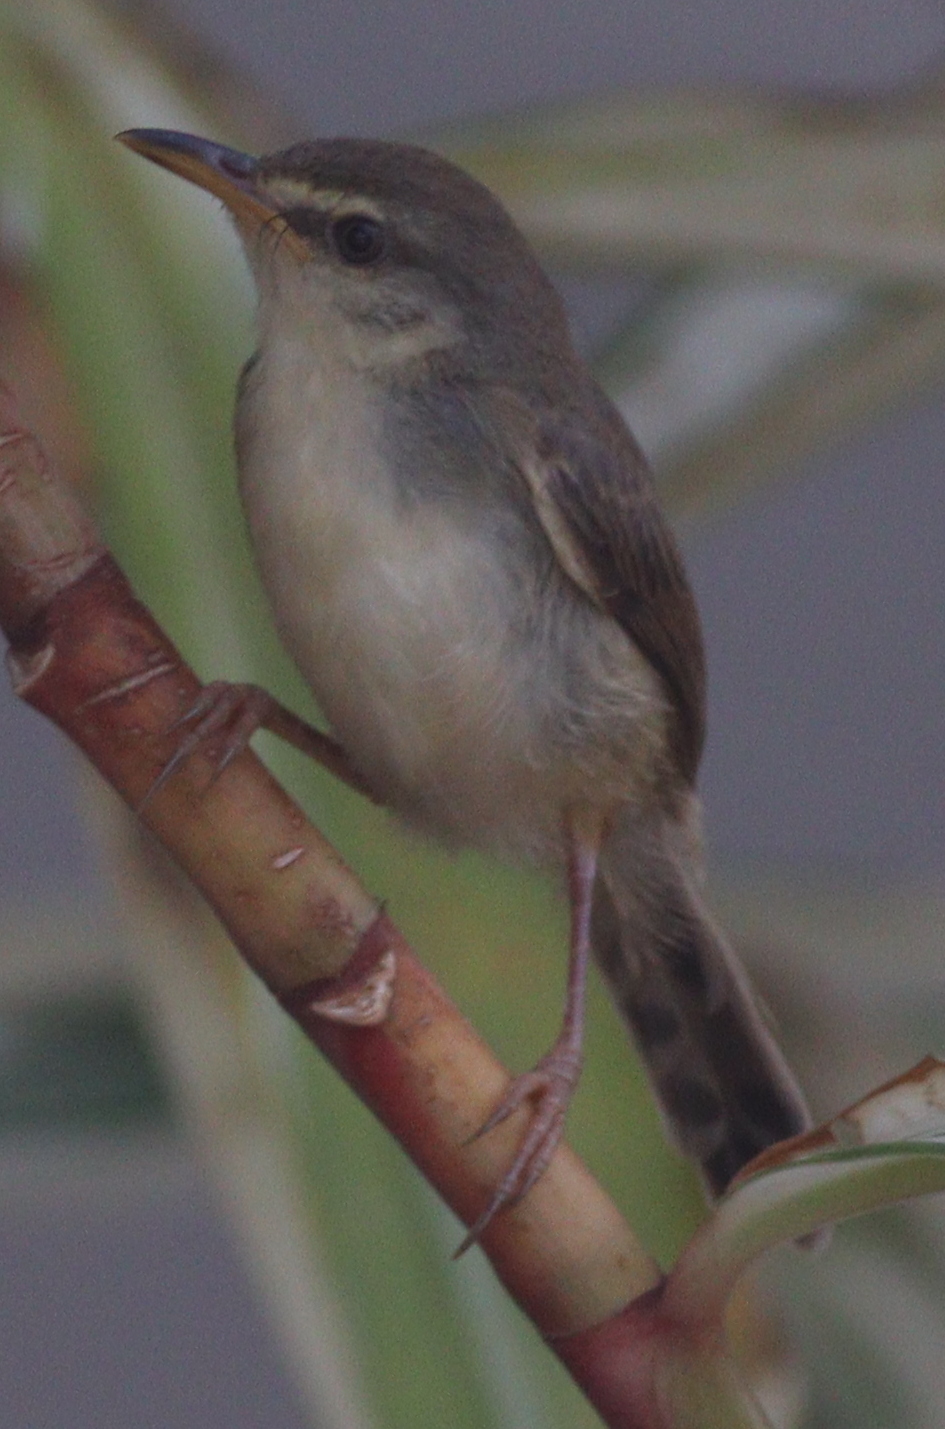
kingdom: Animalia
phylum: Chordata
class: Aves
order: Passeriformes
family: Cisticolidae
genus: Prinia
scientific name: Prinia subflava
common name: Tawny-flanked prinia
